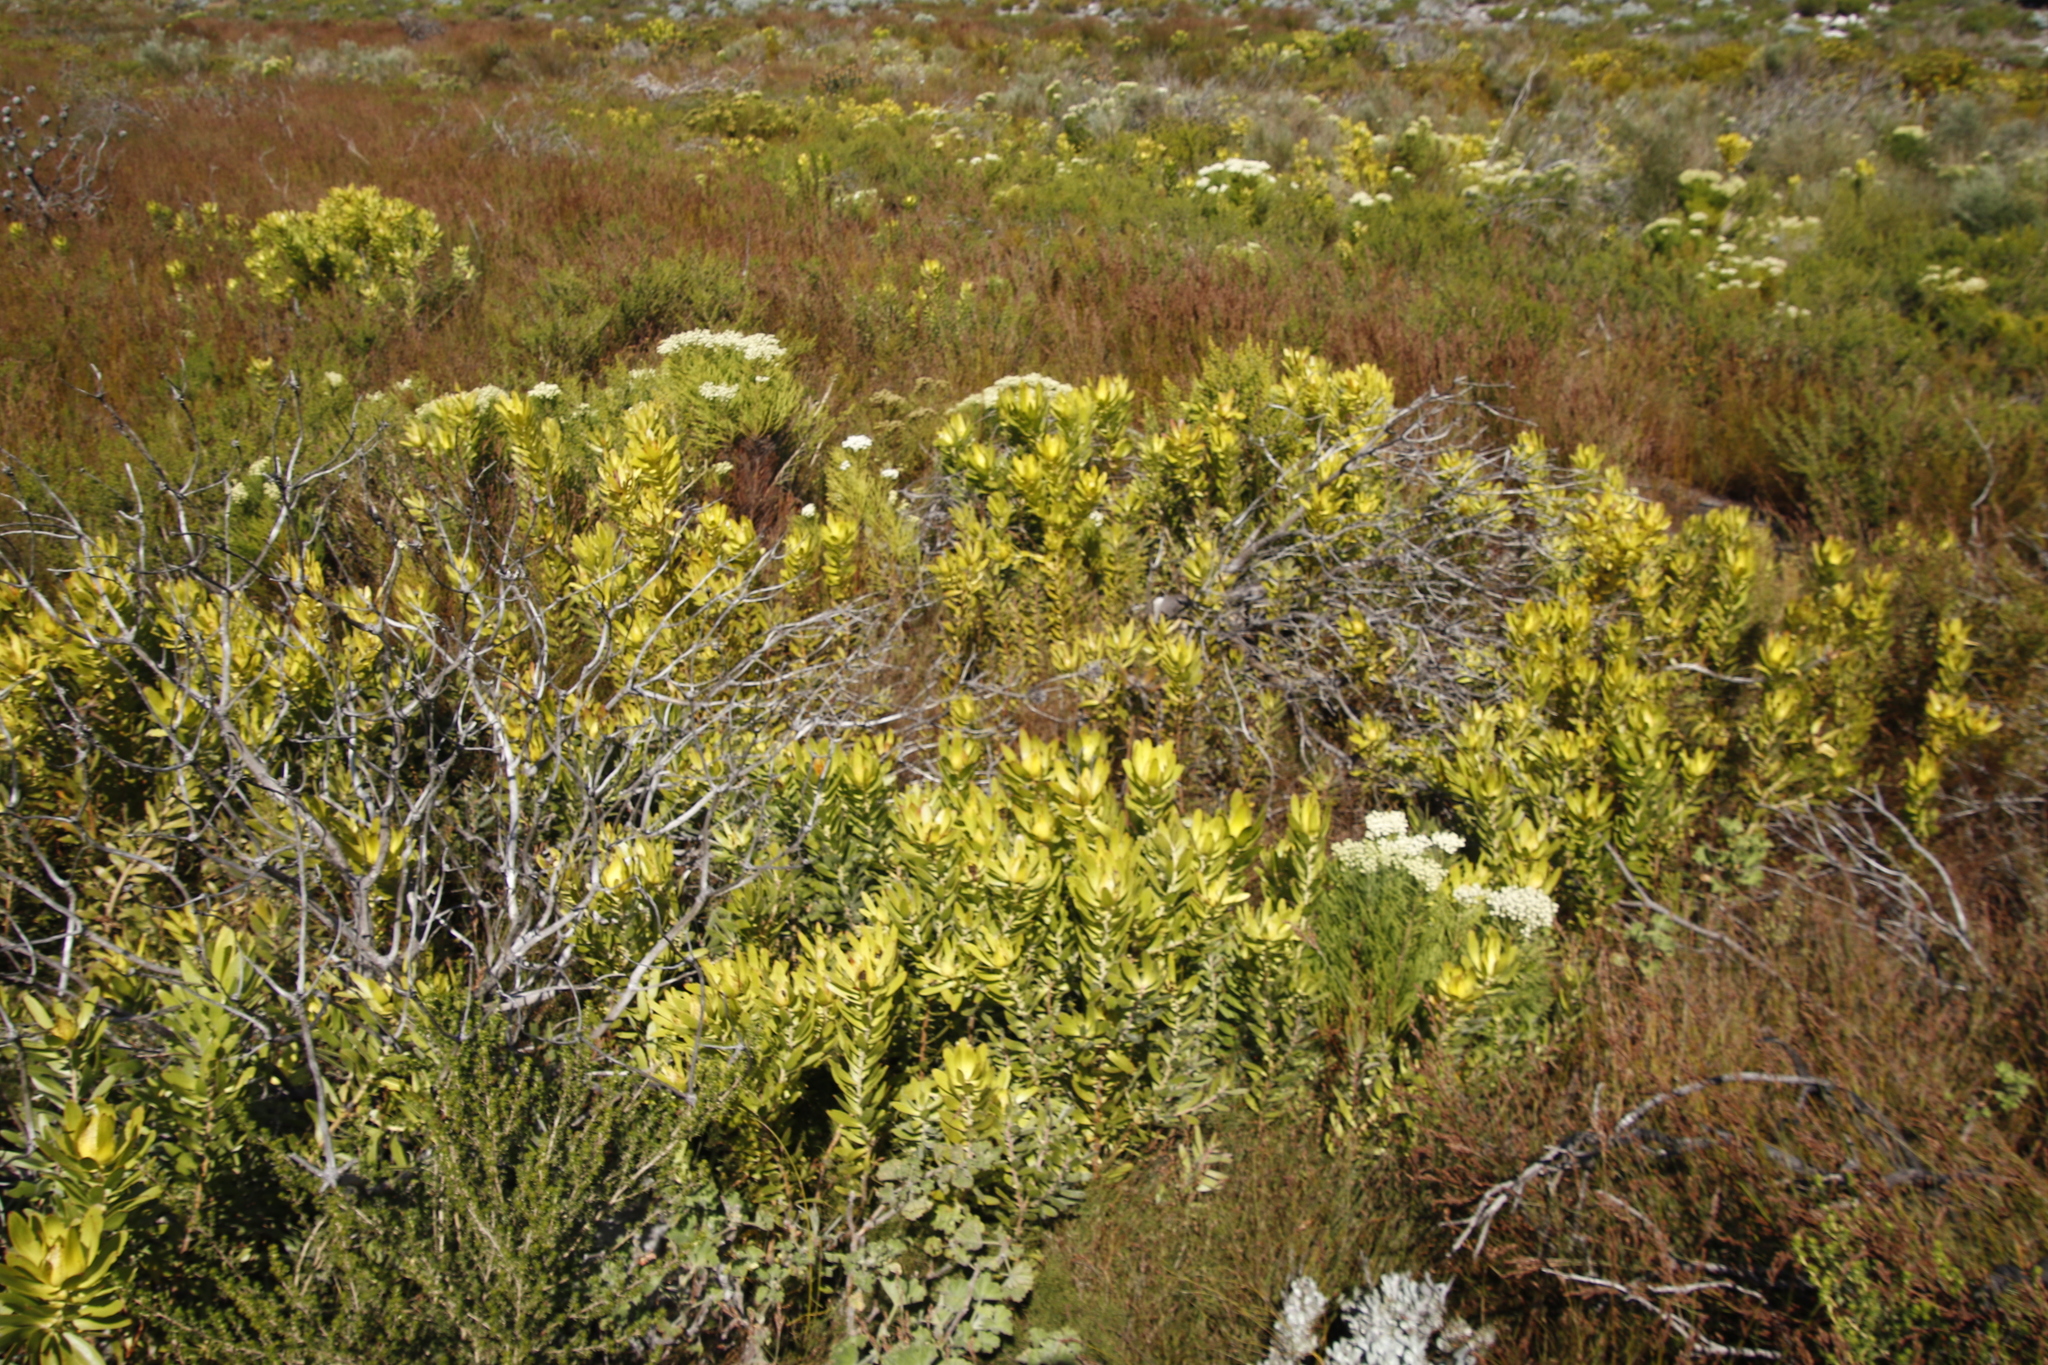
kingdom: Plantae
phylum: Tracheophyta
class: Magnoliopsida
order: Proteales
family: Proteaceae
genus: Leucadendron
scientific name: Leucadendron laureolum
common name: Golden sunshinebush
